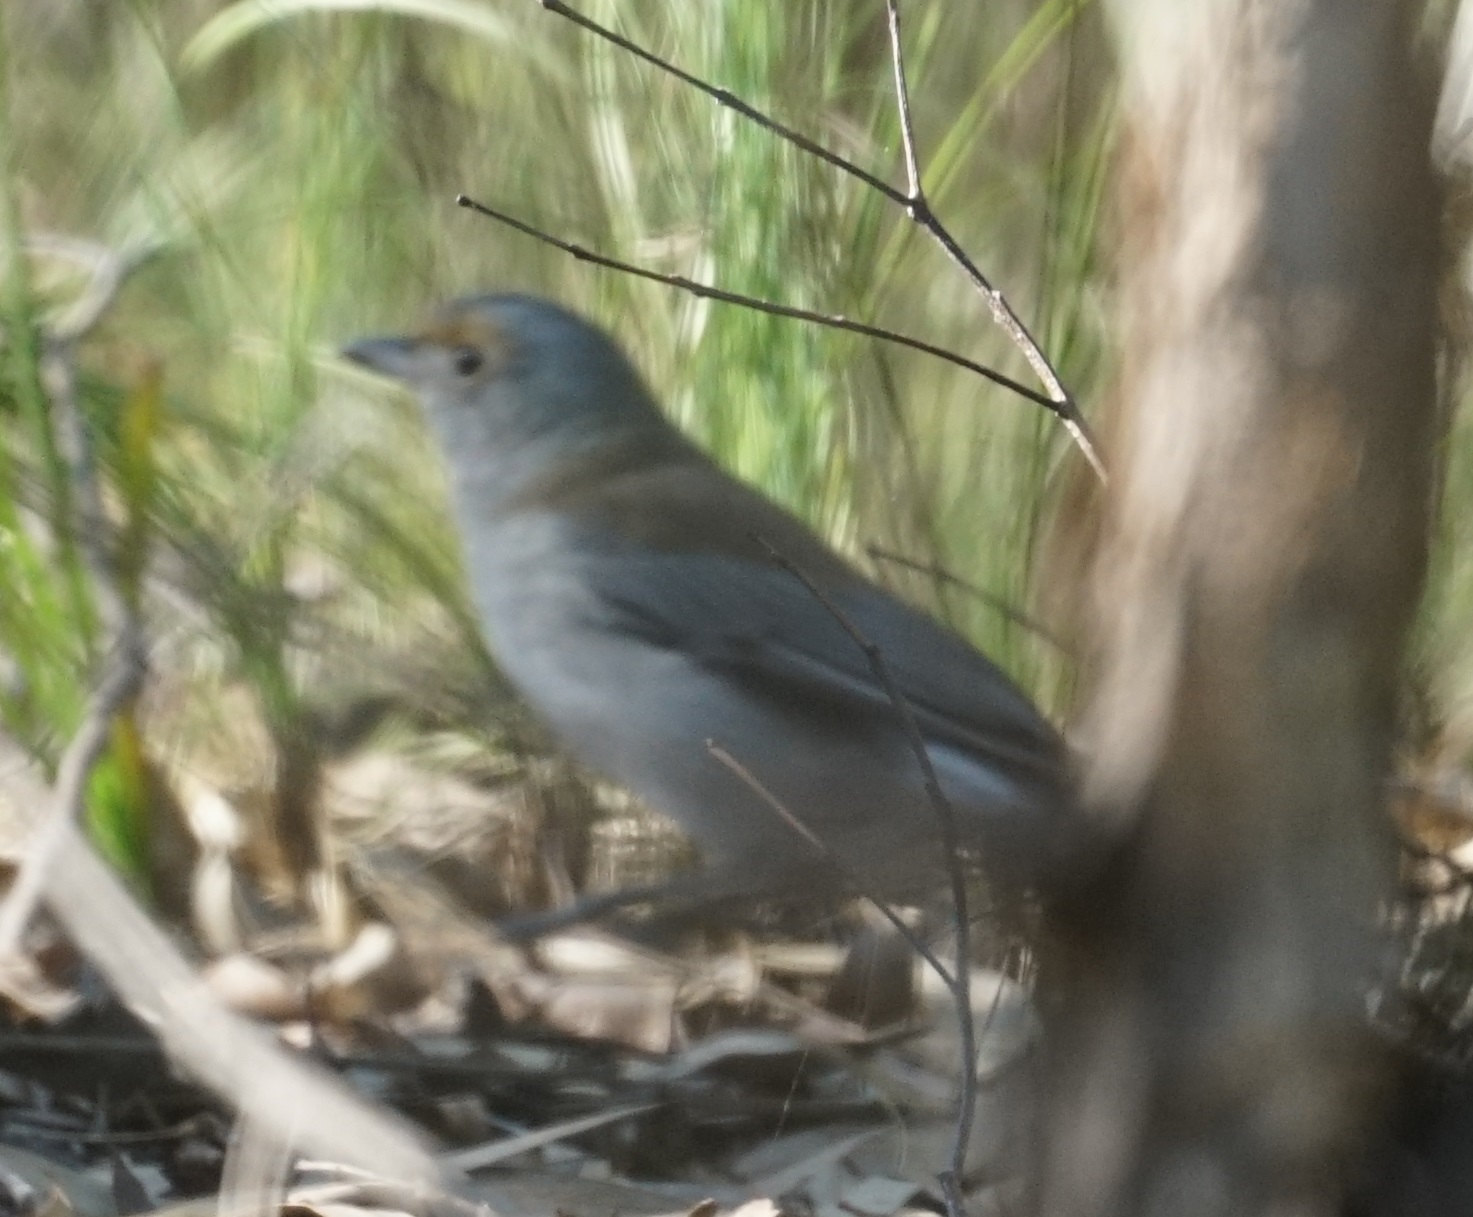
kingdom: Animalia
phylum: Chordata
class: Aves
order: Passeriformes
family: Pachycephalidae
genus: Colluricincla
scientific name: Colluricincla harmonica
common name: Grey shrikethrush
